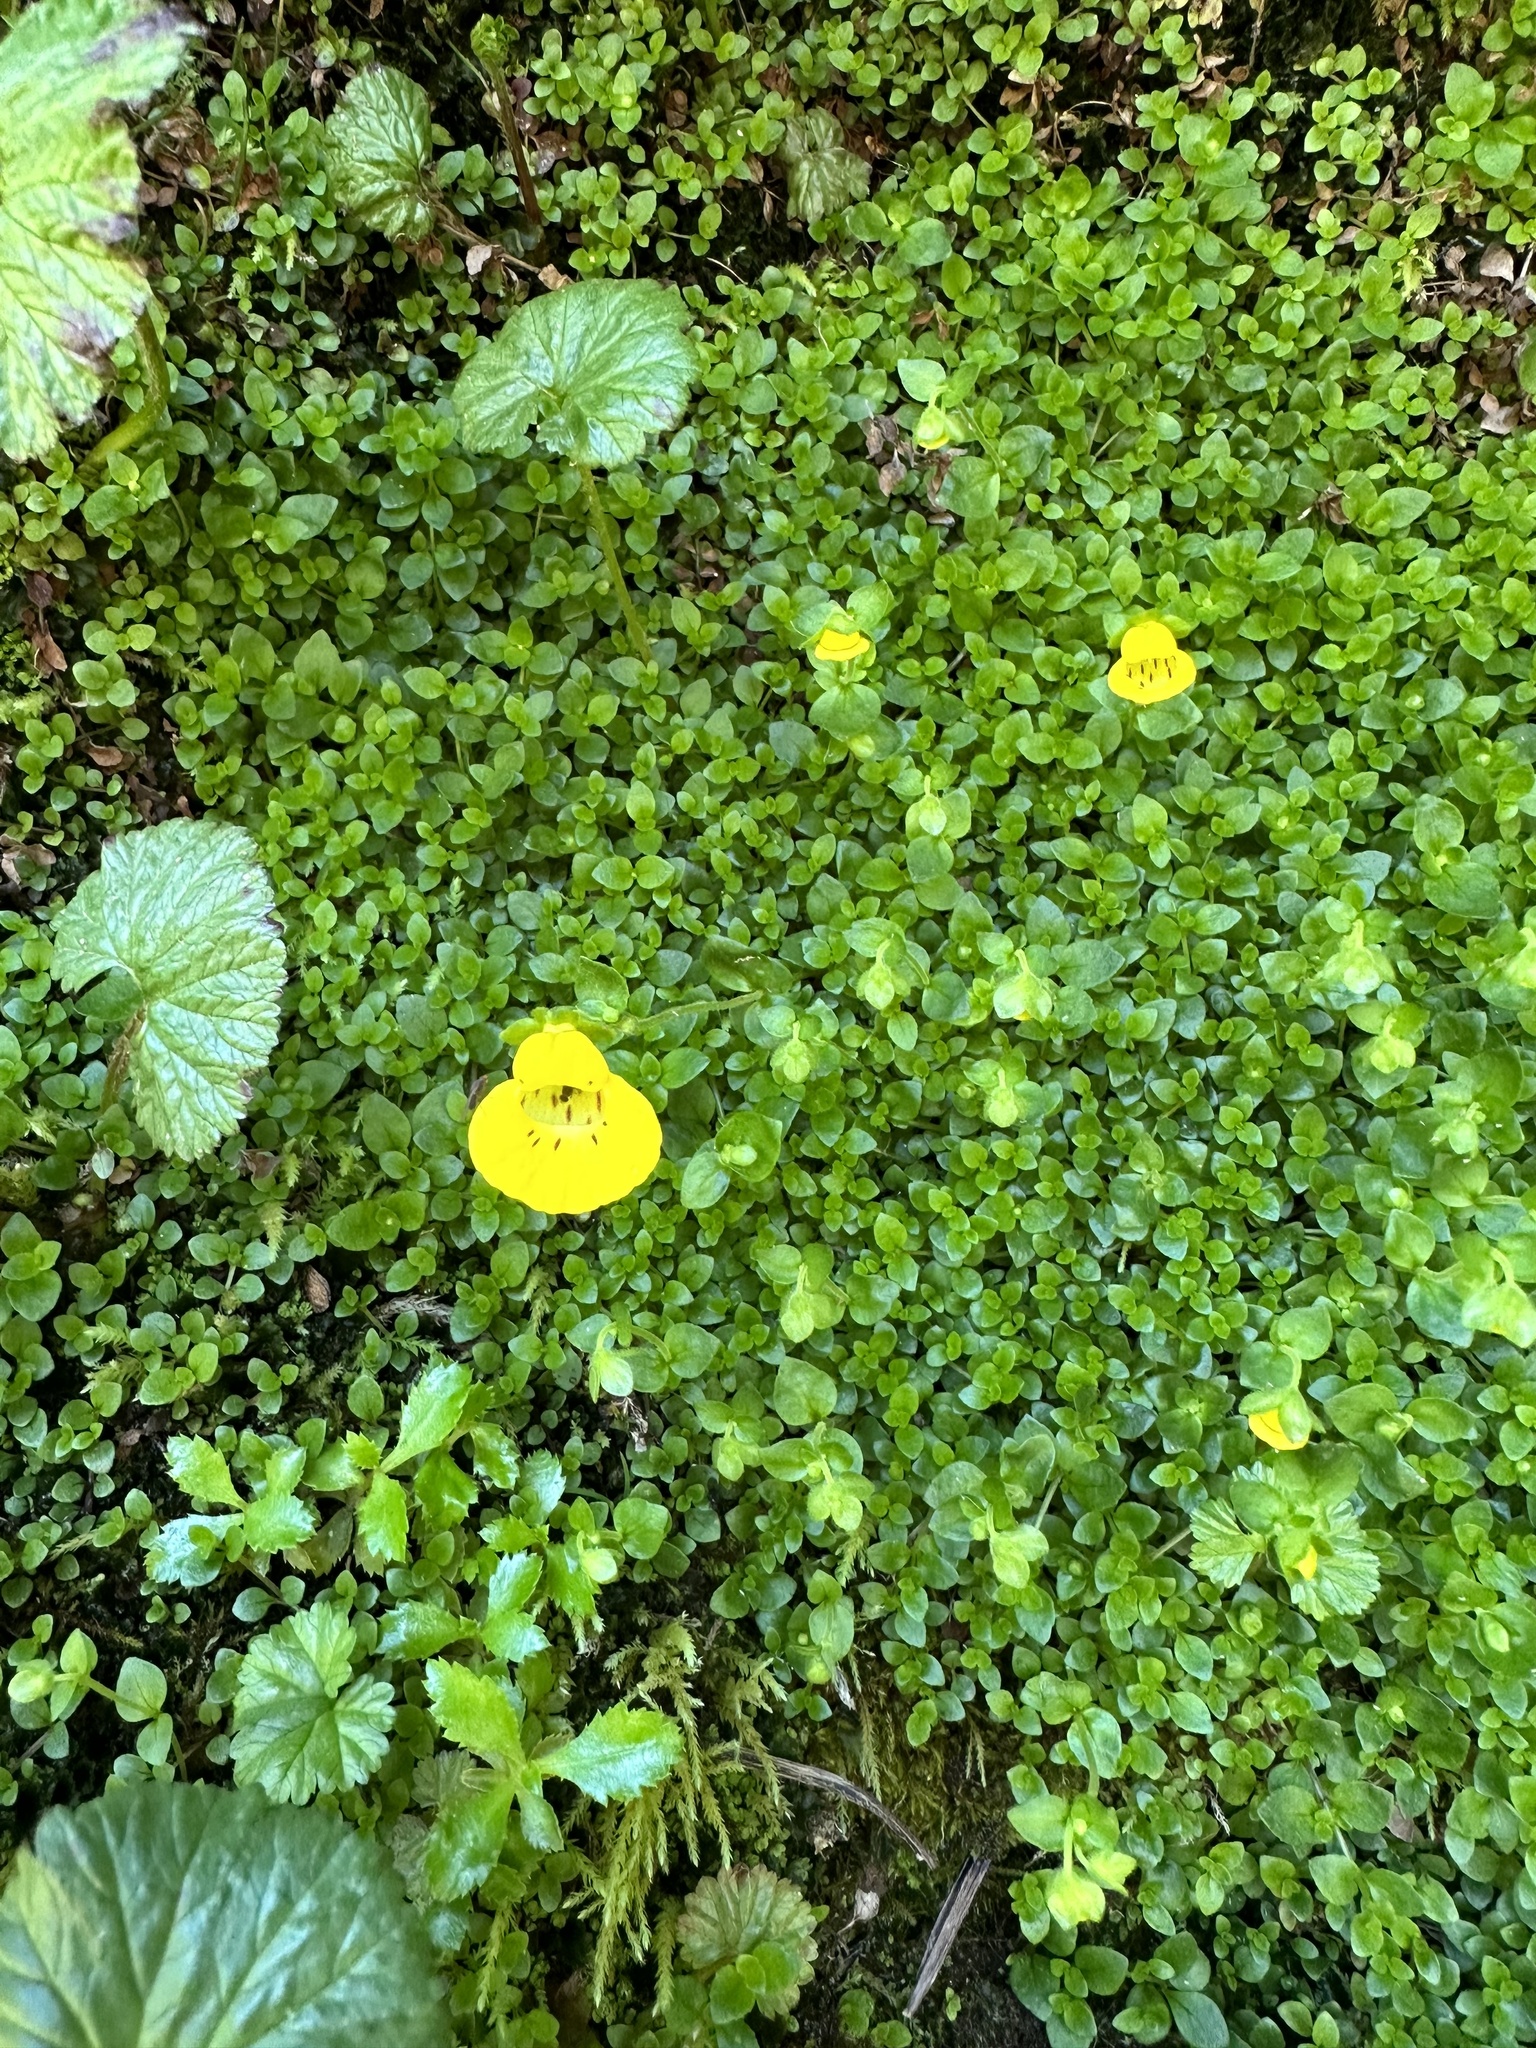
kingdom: Plantae
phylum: Tracheophyta
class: Magnoliopsida
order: Lamiales
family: Calceolariaceae
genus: Calceolaria
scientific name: Calceolaria tenella
